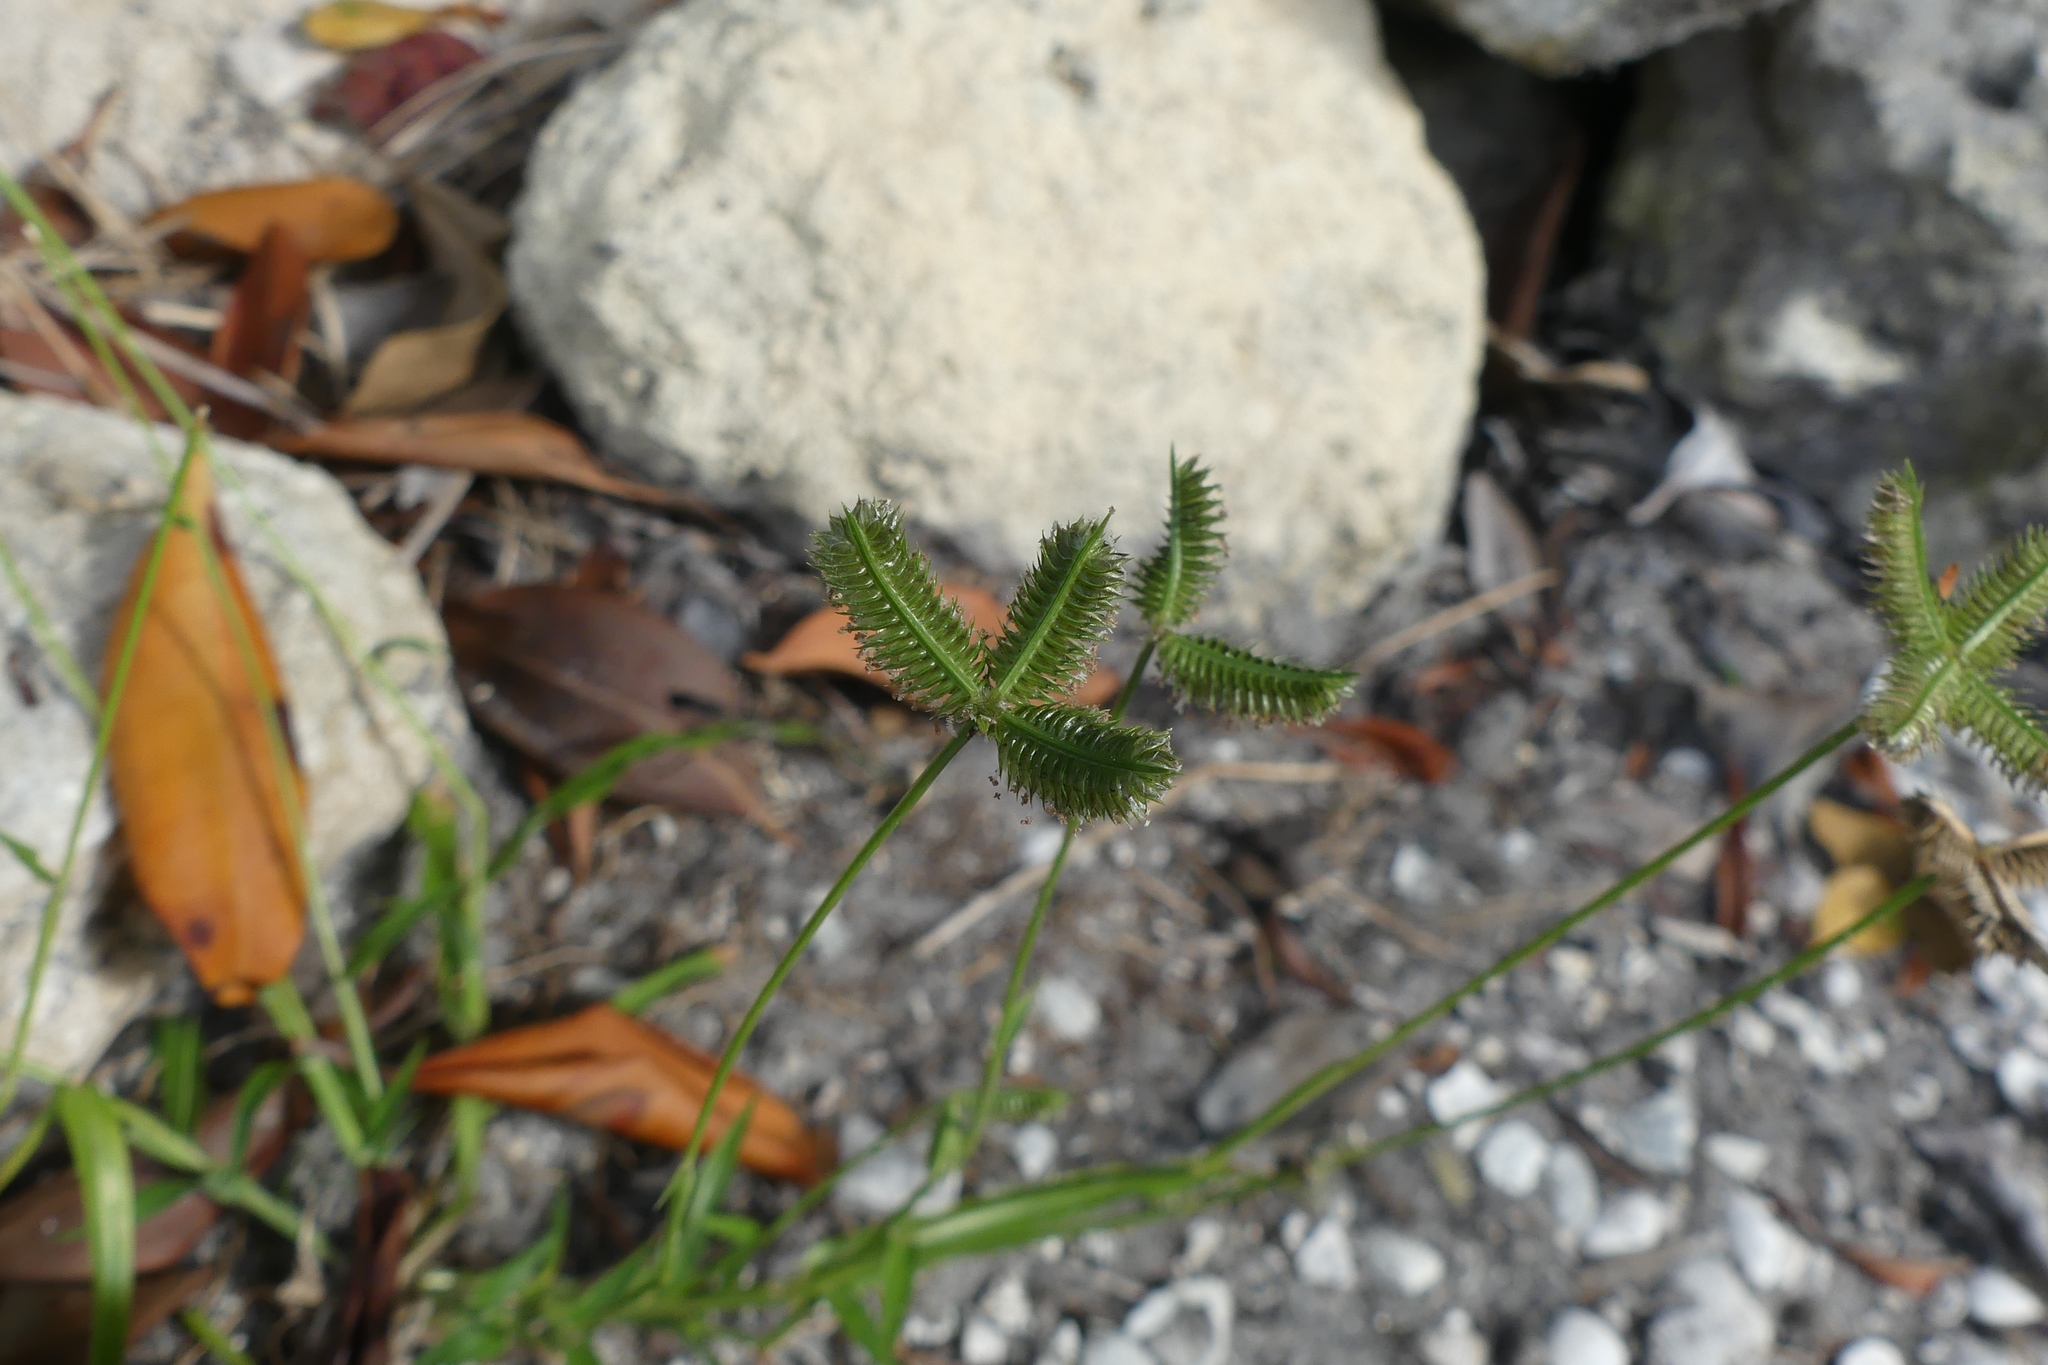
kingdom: Plantae
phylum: Tracheophyta
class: Liliopsida
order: Poales
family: Poaceae
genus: Dactyloctenium
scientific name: Dactyloctenium aegyptium
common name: Egyptian grass
